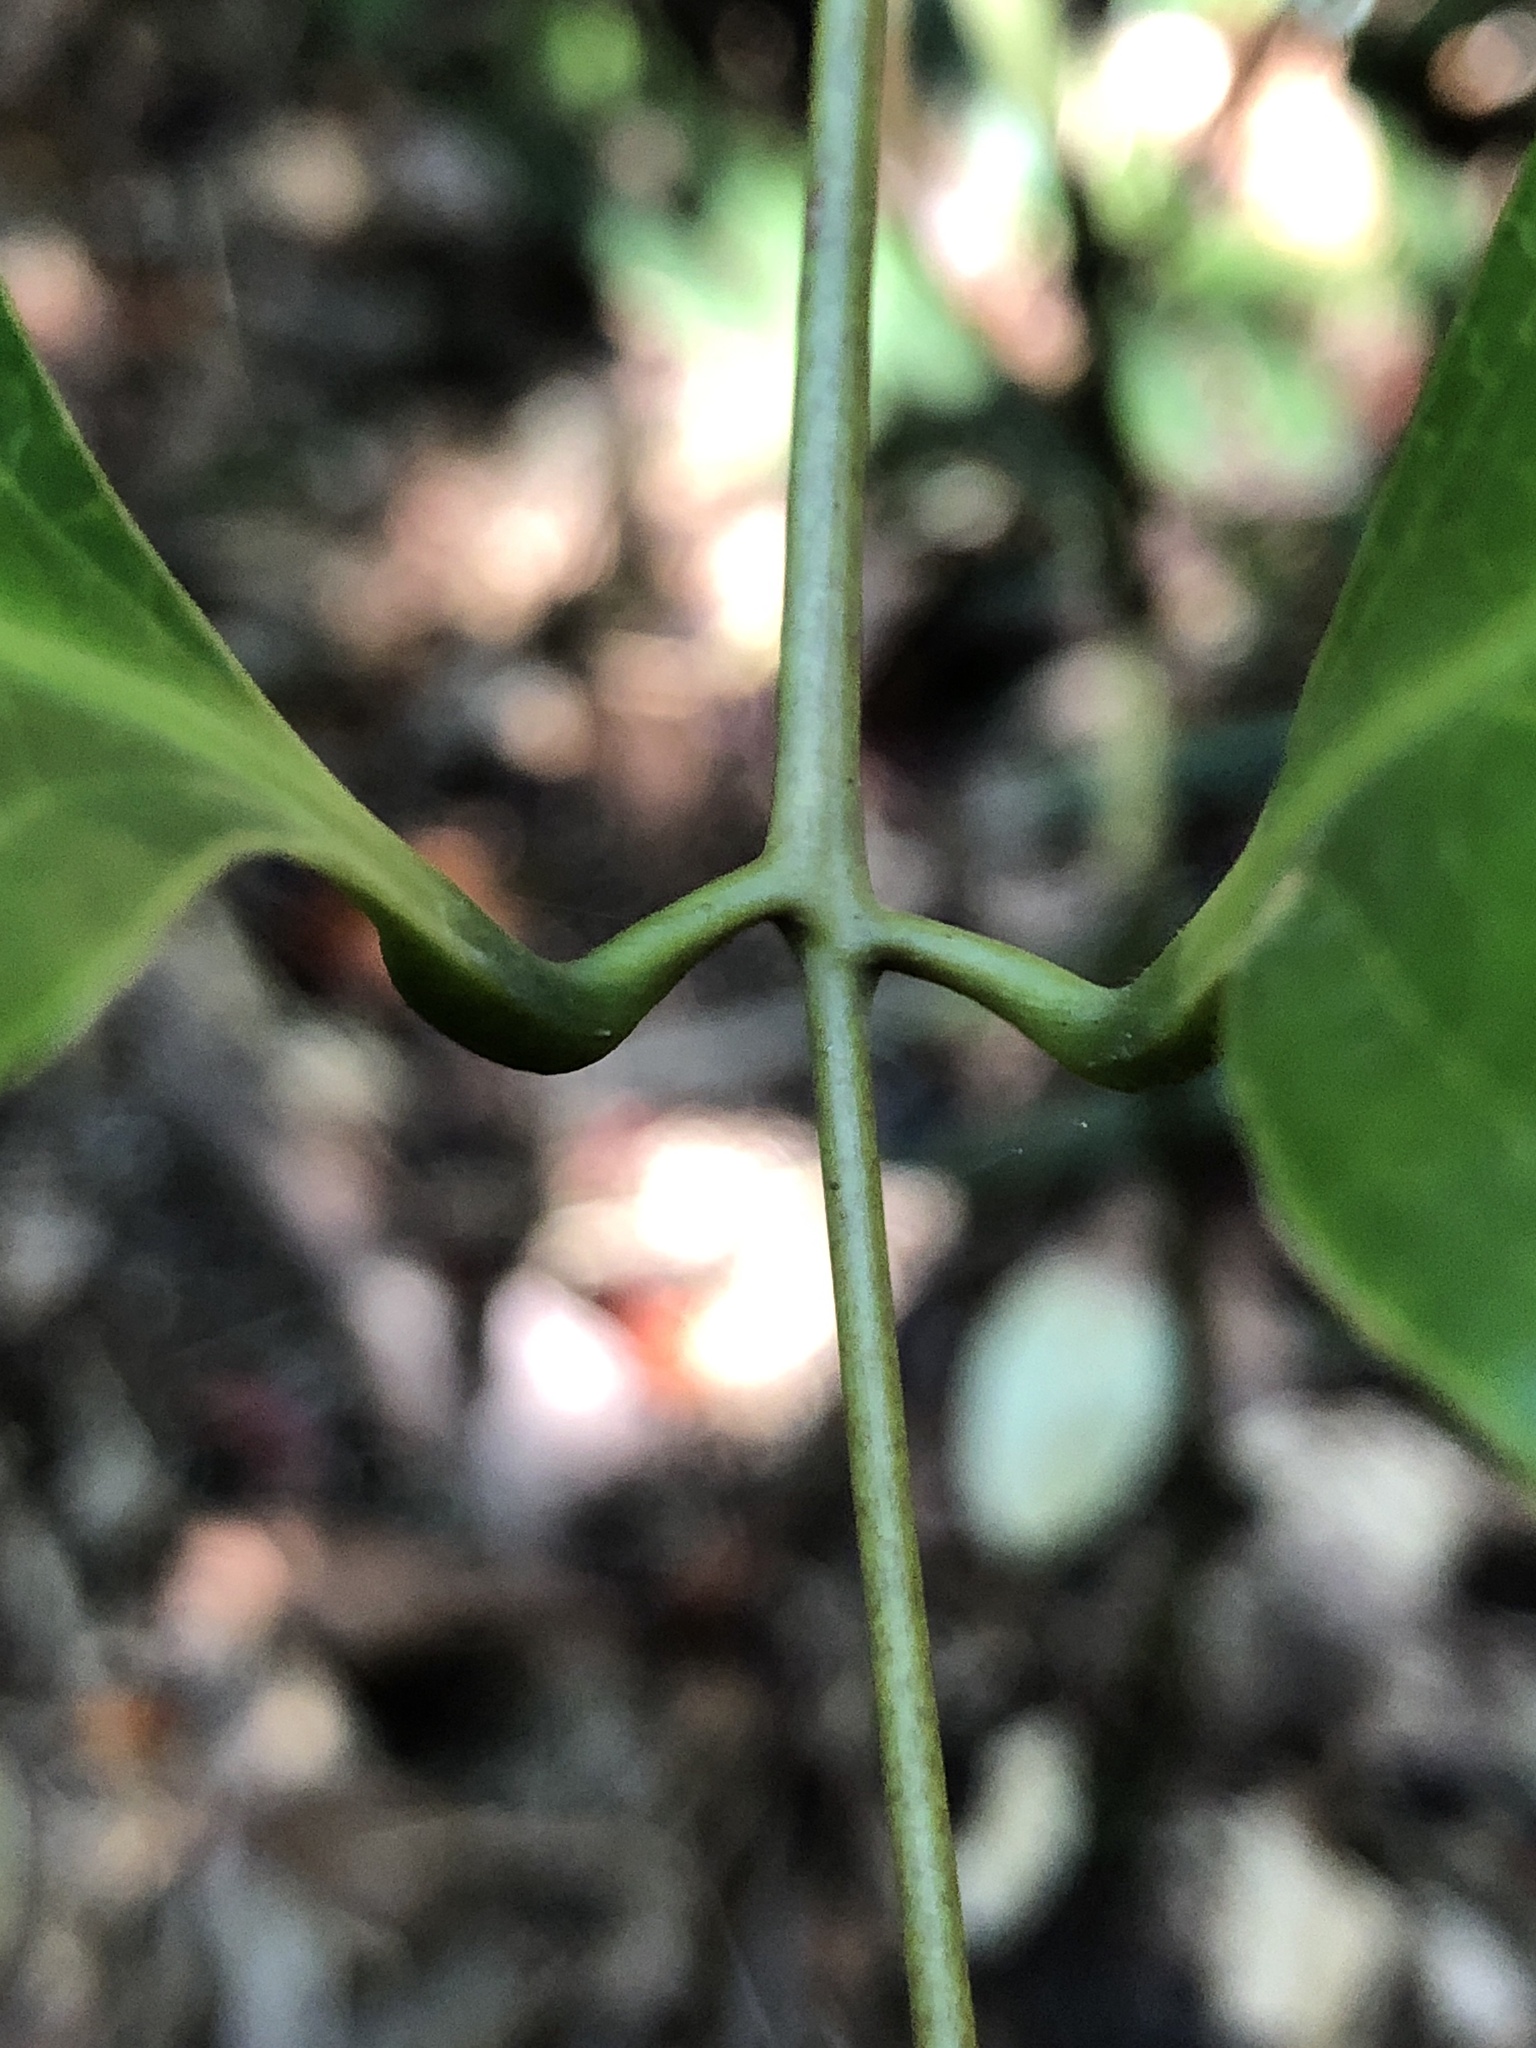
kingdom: Plantae
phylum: Tracheophyta
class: Liliopsida
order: Liliales
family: Ripogonaceae
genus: Ripogonum
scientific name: Ripogonum album
